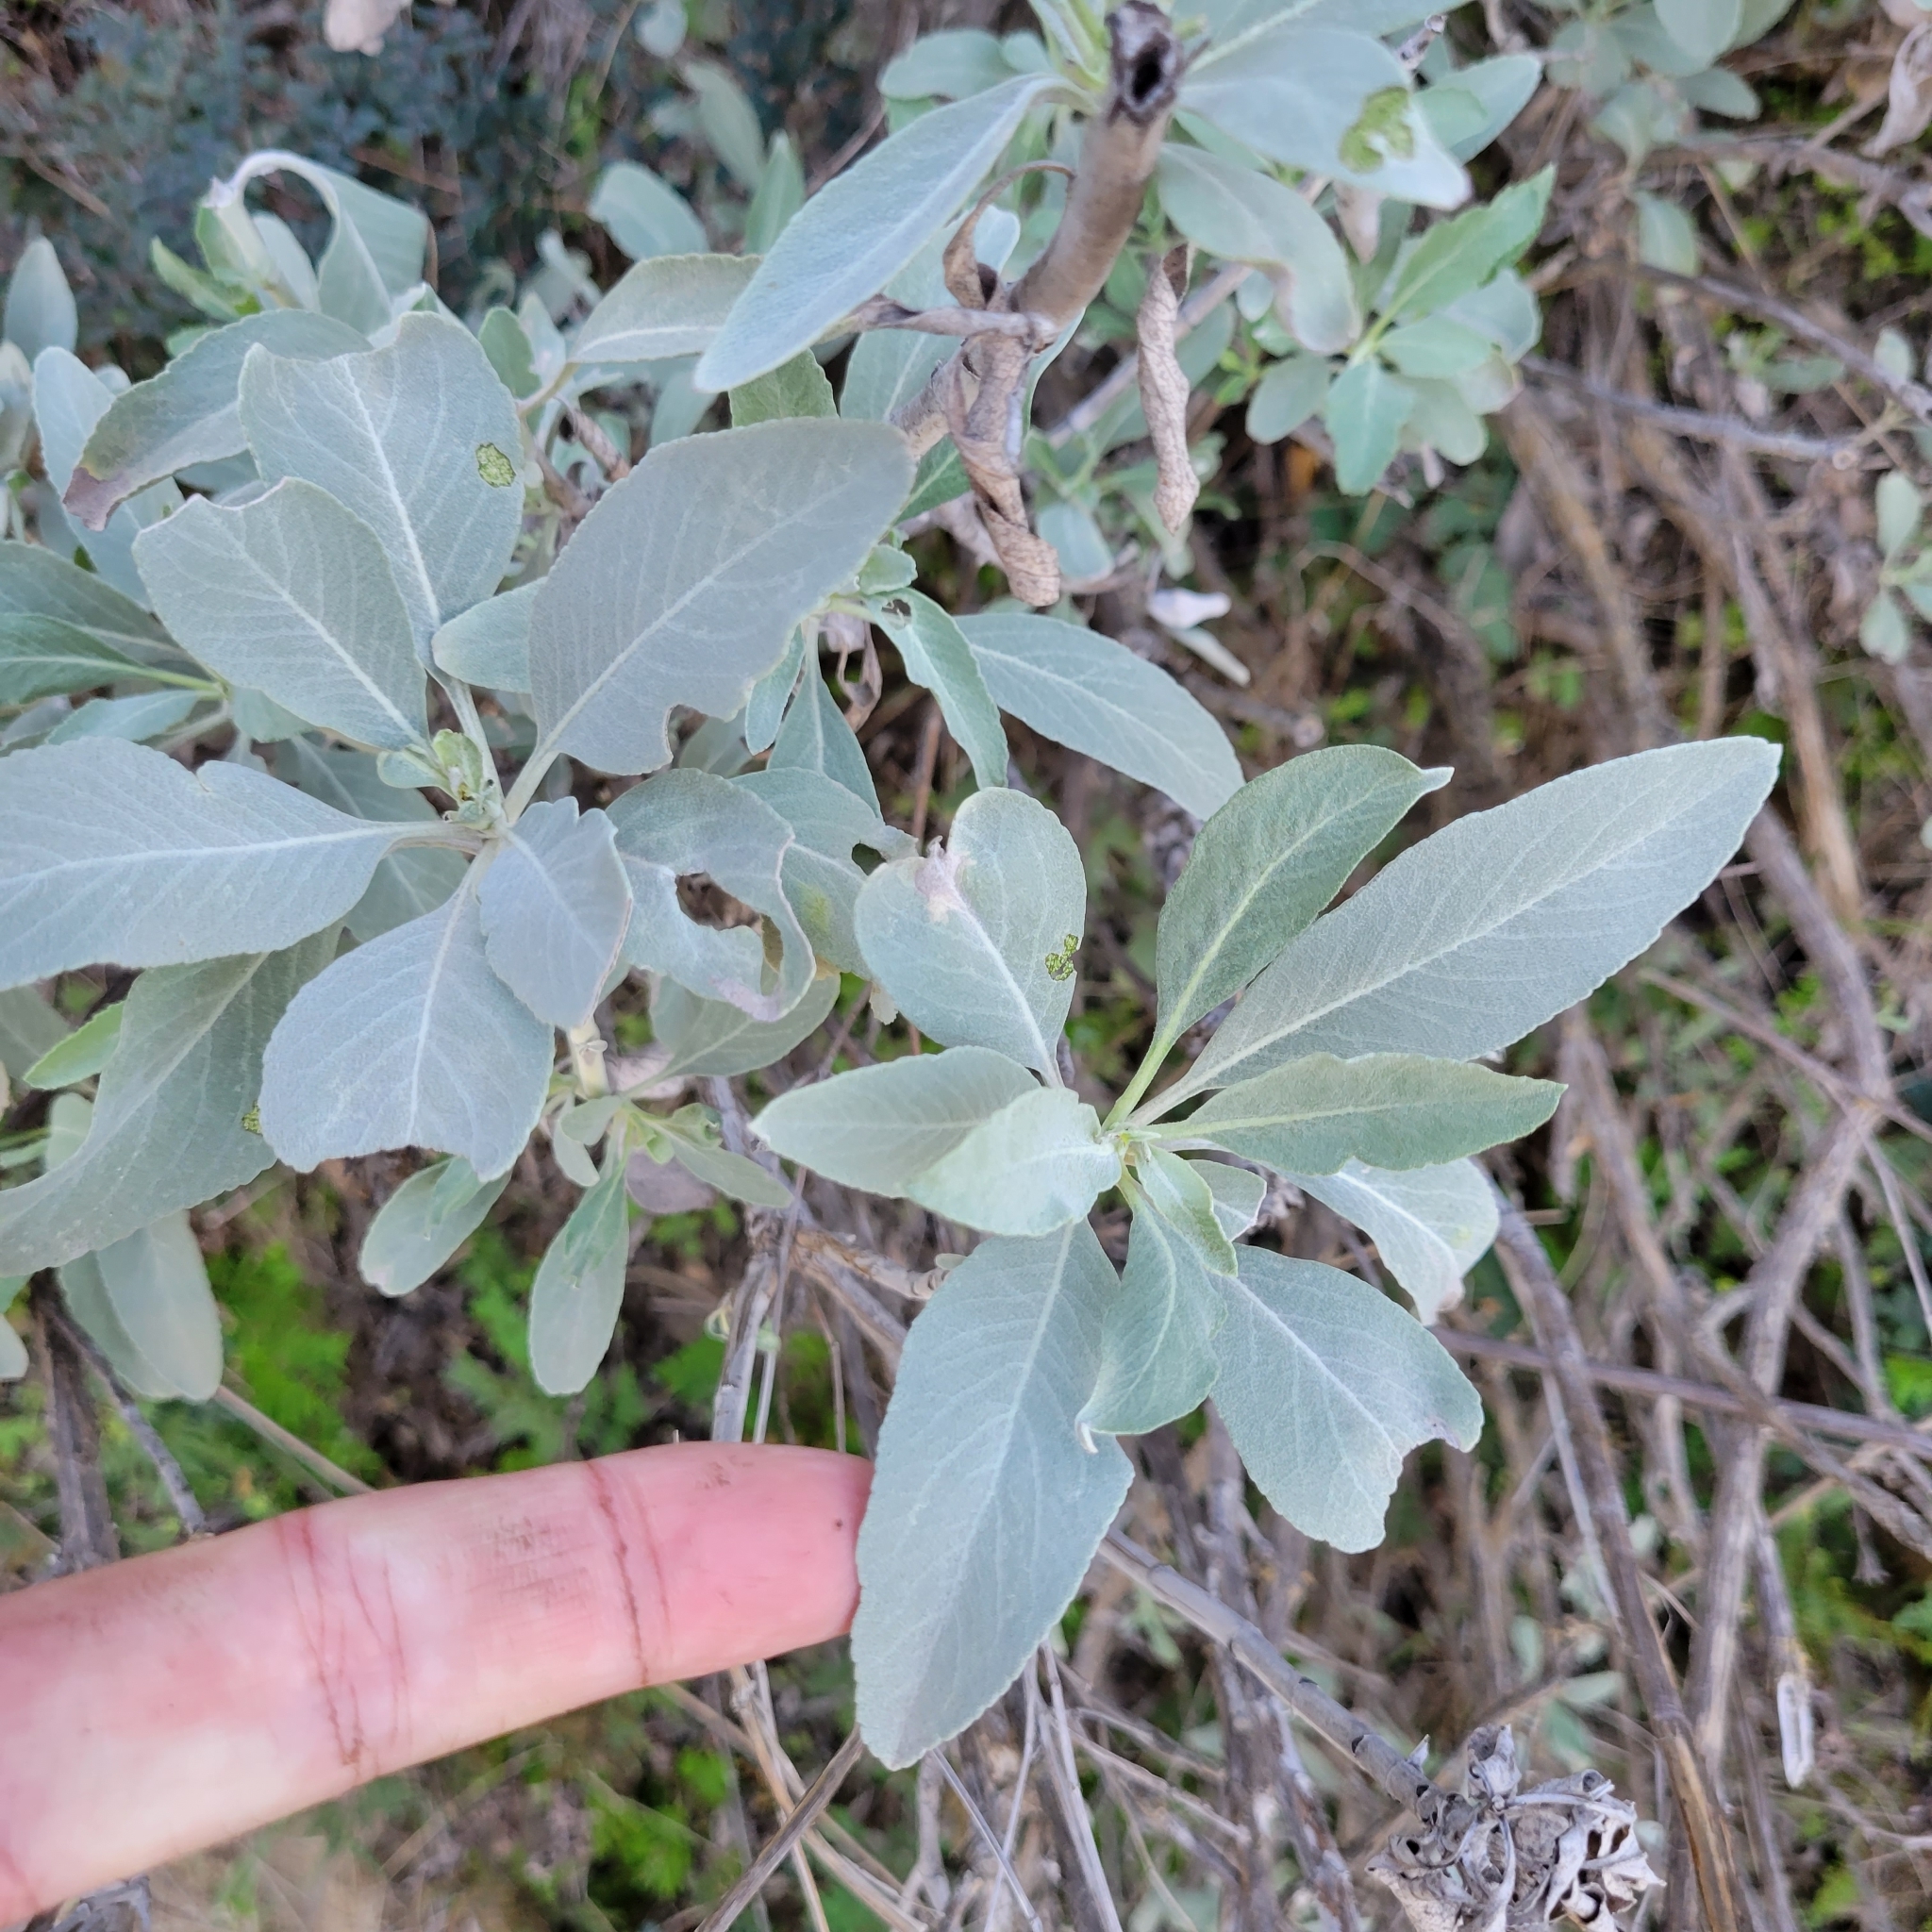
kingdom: Plantae
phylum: Tracheophyta
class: Magnoliopsida
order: Lamiales
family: Lamiaceae
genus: Salvia
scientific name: Salvia apiana
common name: White sage
